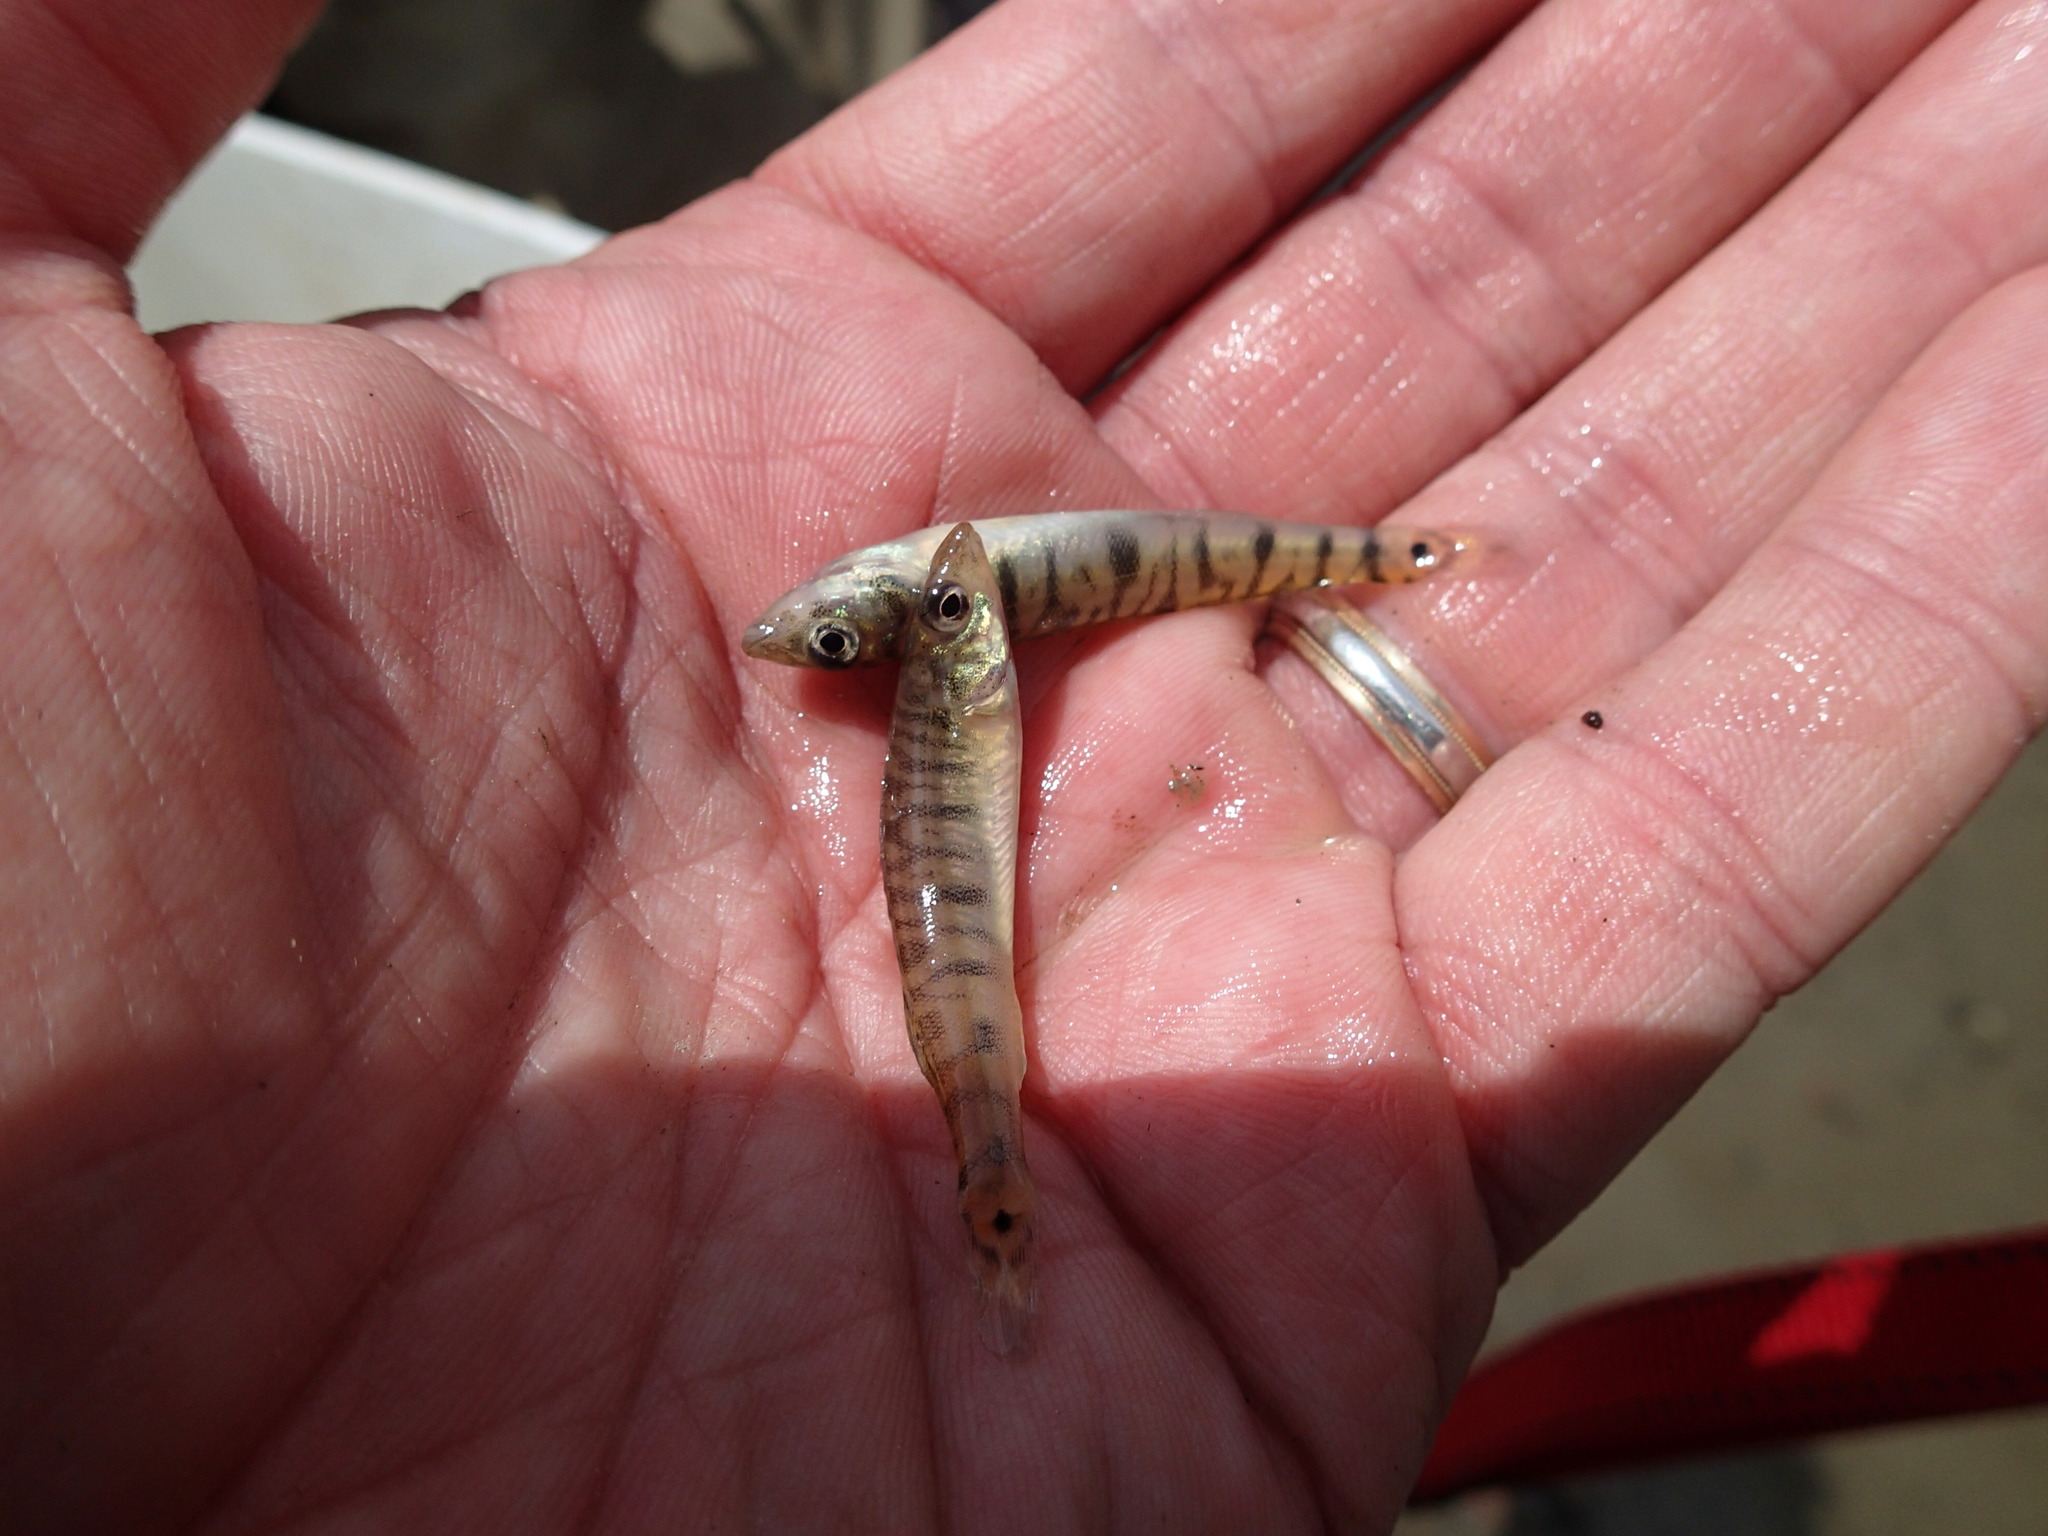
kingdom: Animalia
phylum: Chordata
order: Perciformes
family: Percidae
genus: Percina
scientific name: Percina caprodes
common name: Logperch
